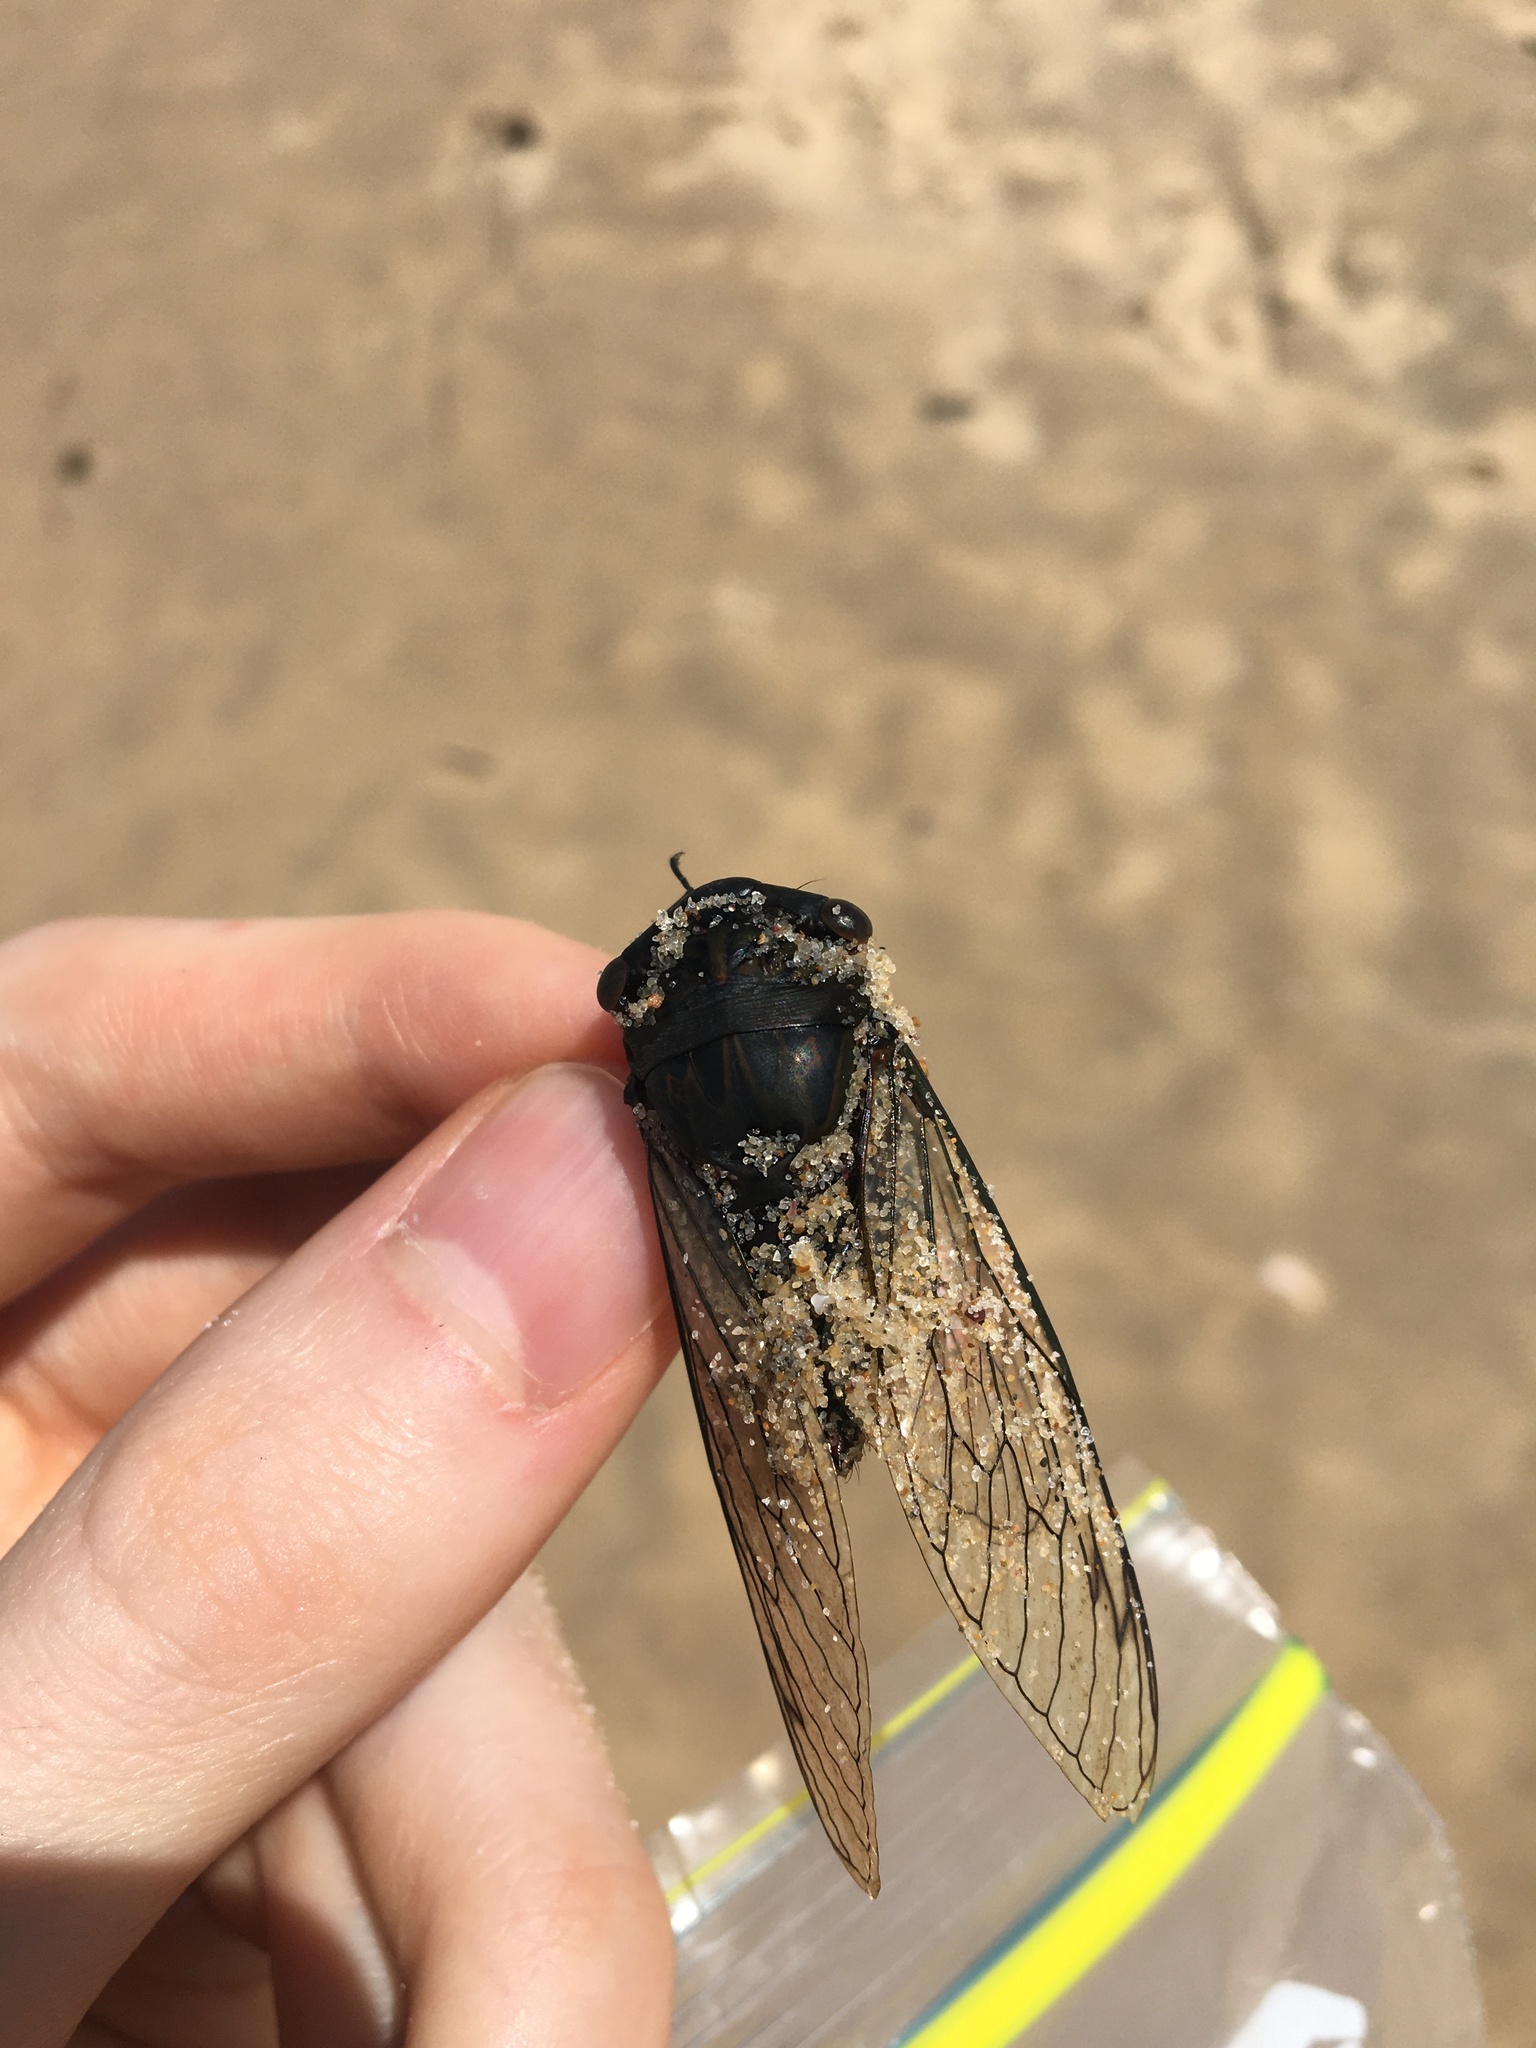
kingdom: Animalia
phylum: Arthropoda
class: Insecta
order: Hemiptera
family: Cicadidae
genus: Psaltoda
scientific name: Psaltoda plaga
